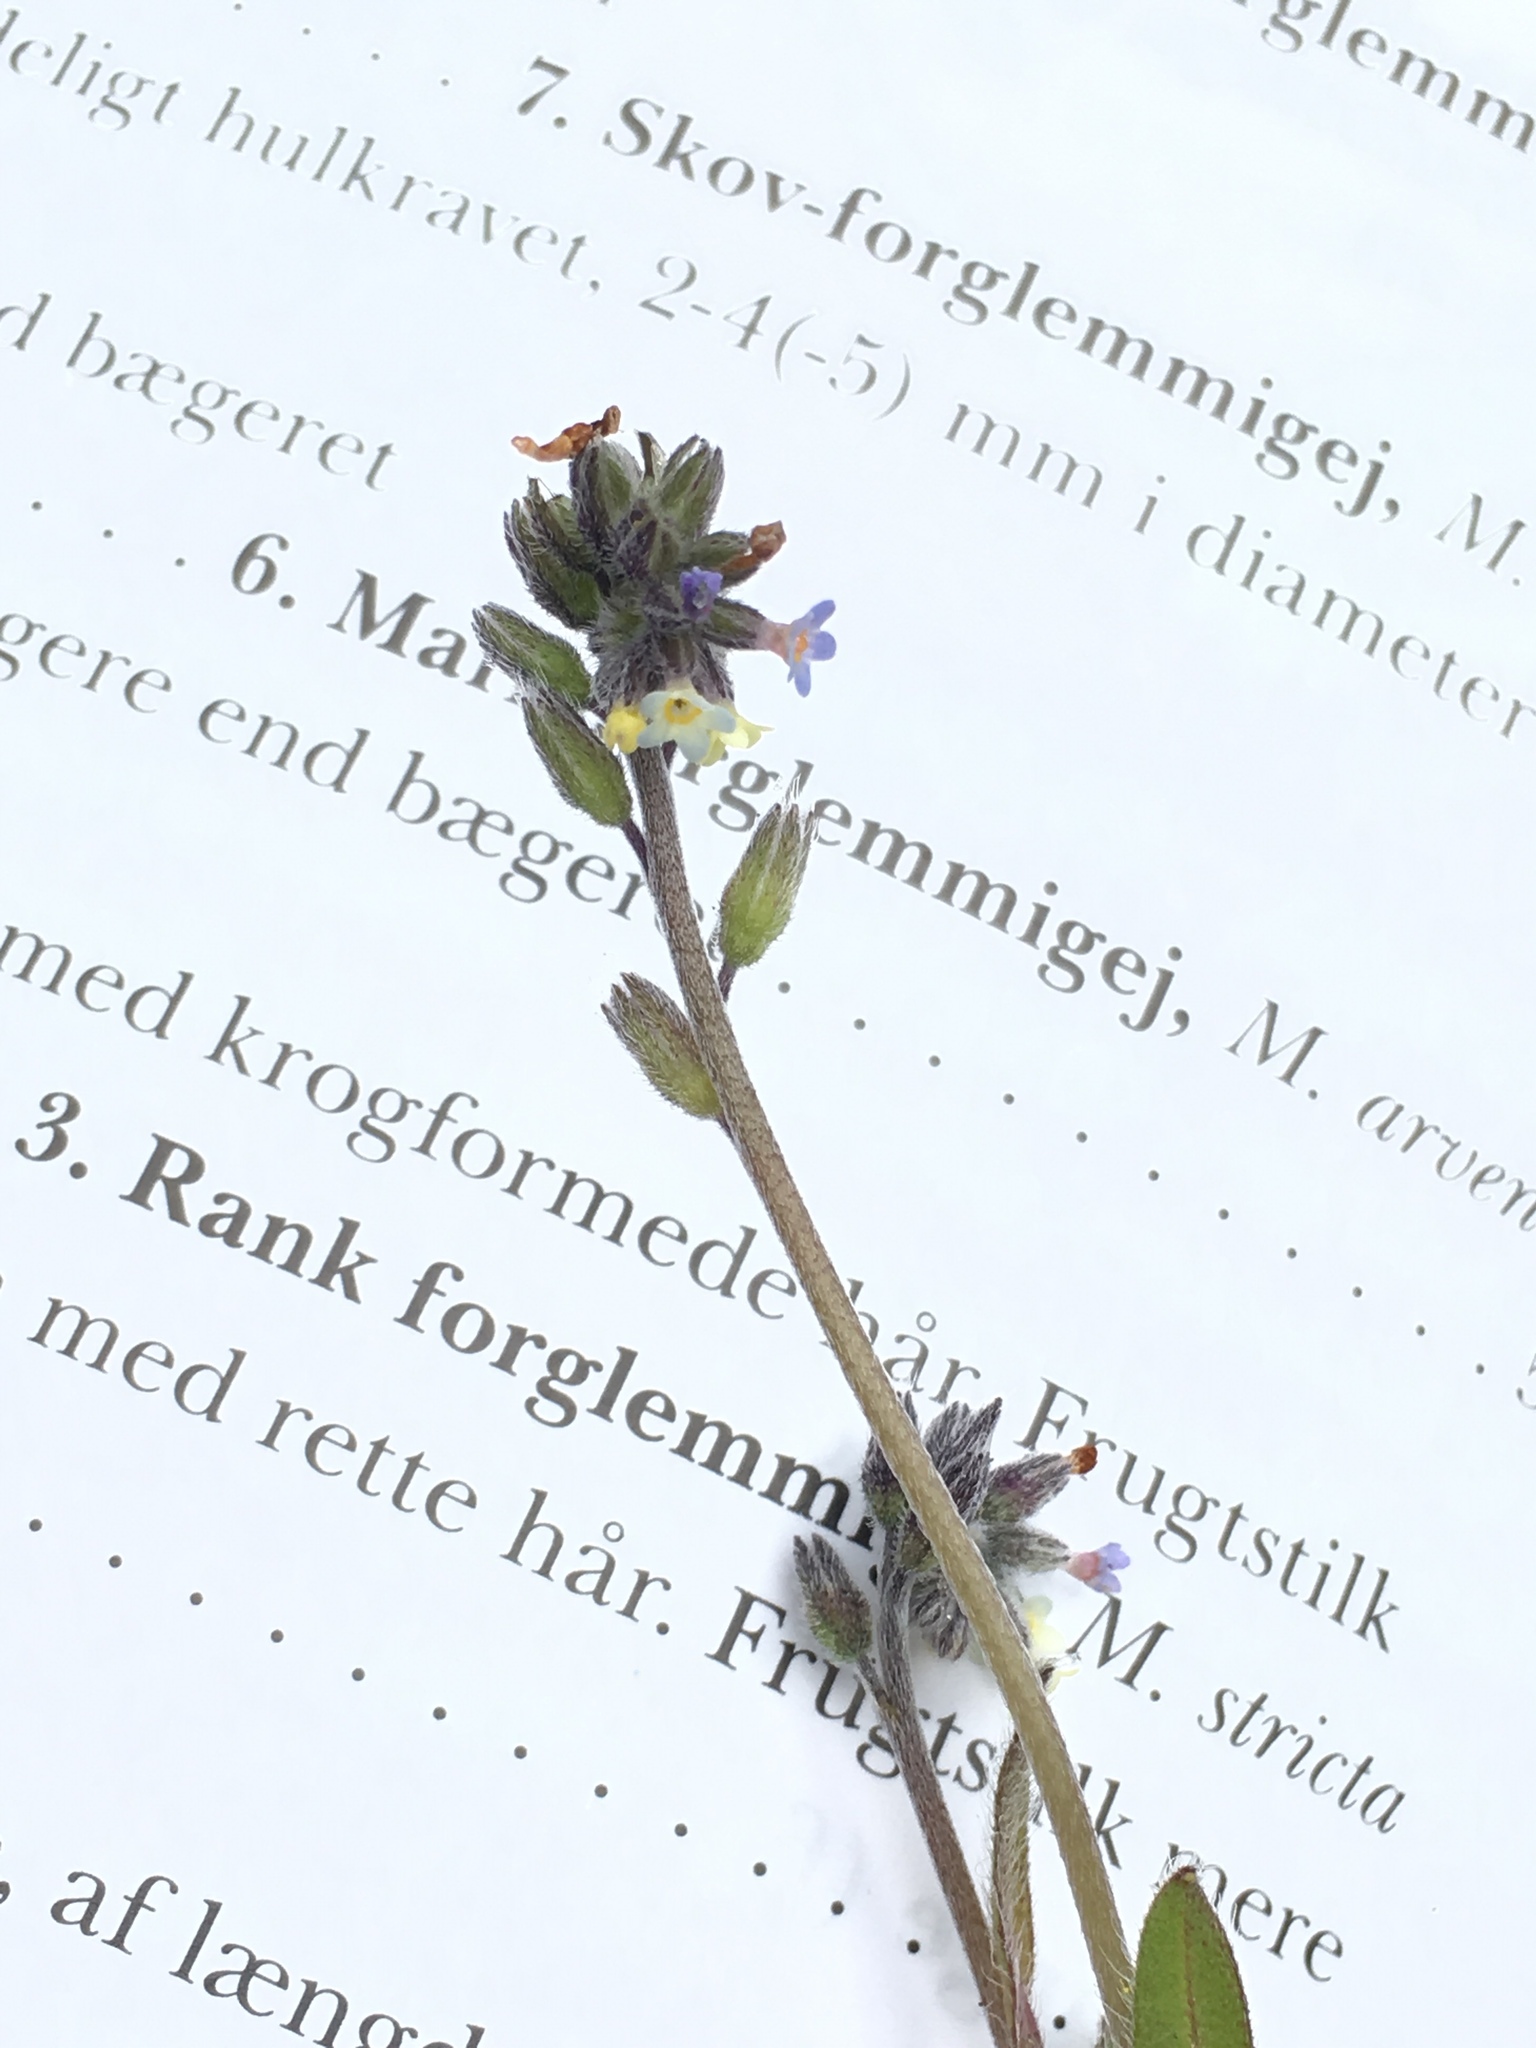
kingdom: Plantae
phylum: Tracheophyta
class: Magnoliopsida
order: Boraginales
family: Boraginaceae
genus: Myosotis
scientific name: Myosotis discolor
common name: Changing forget-me-not
